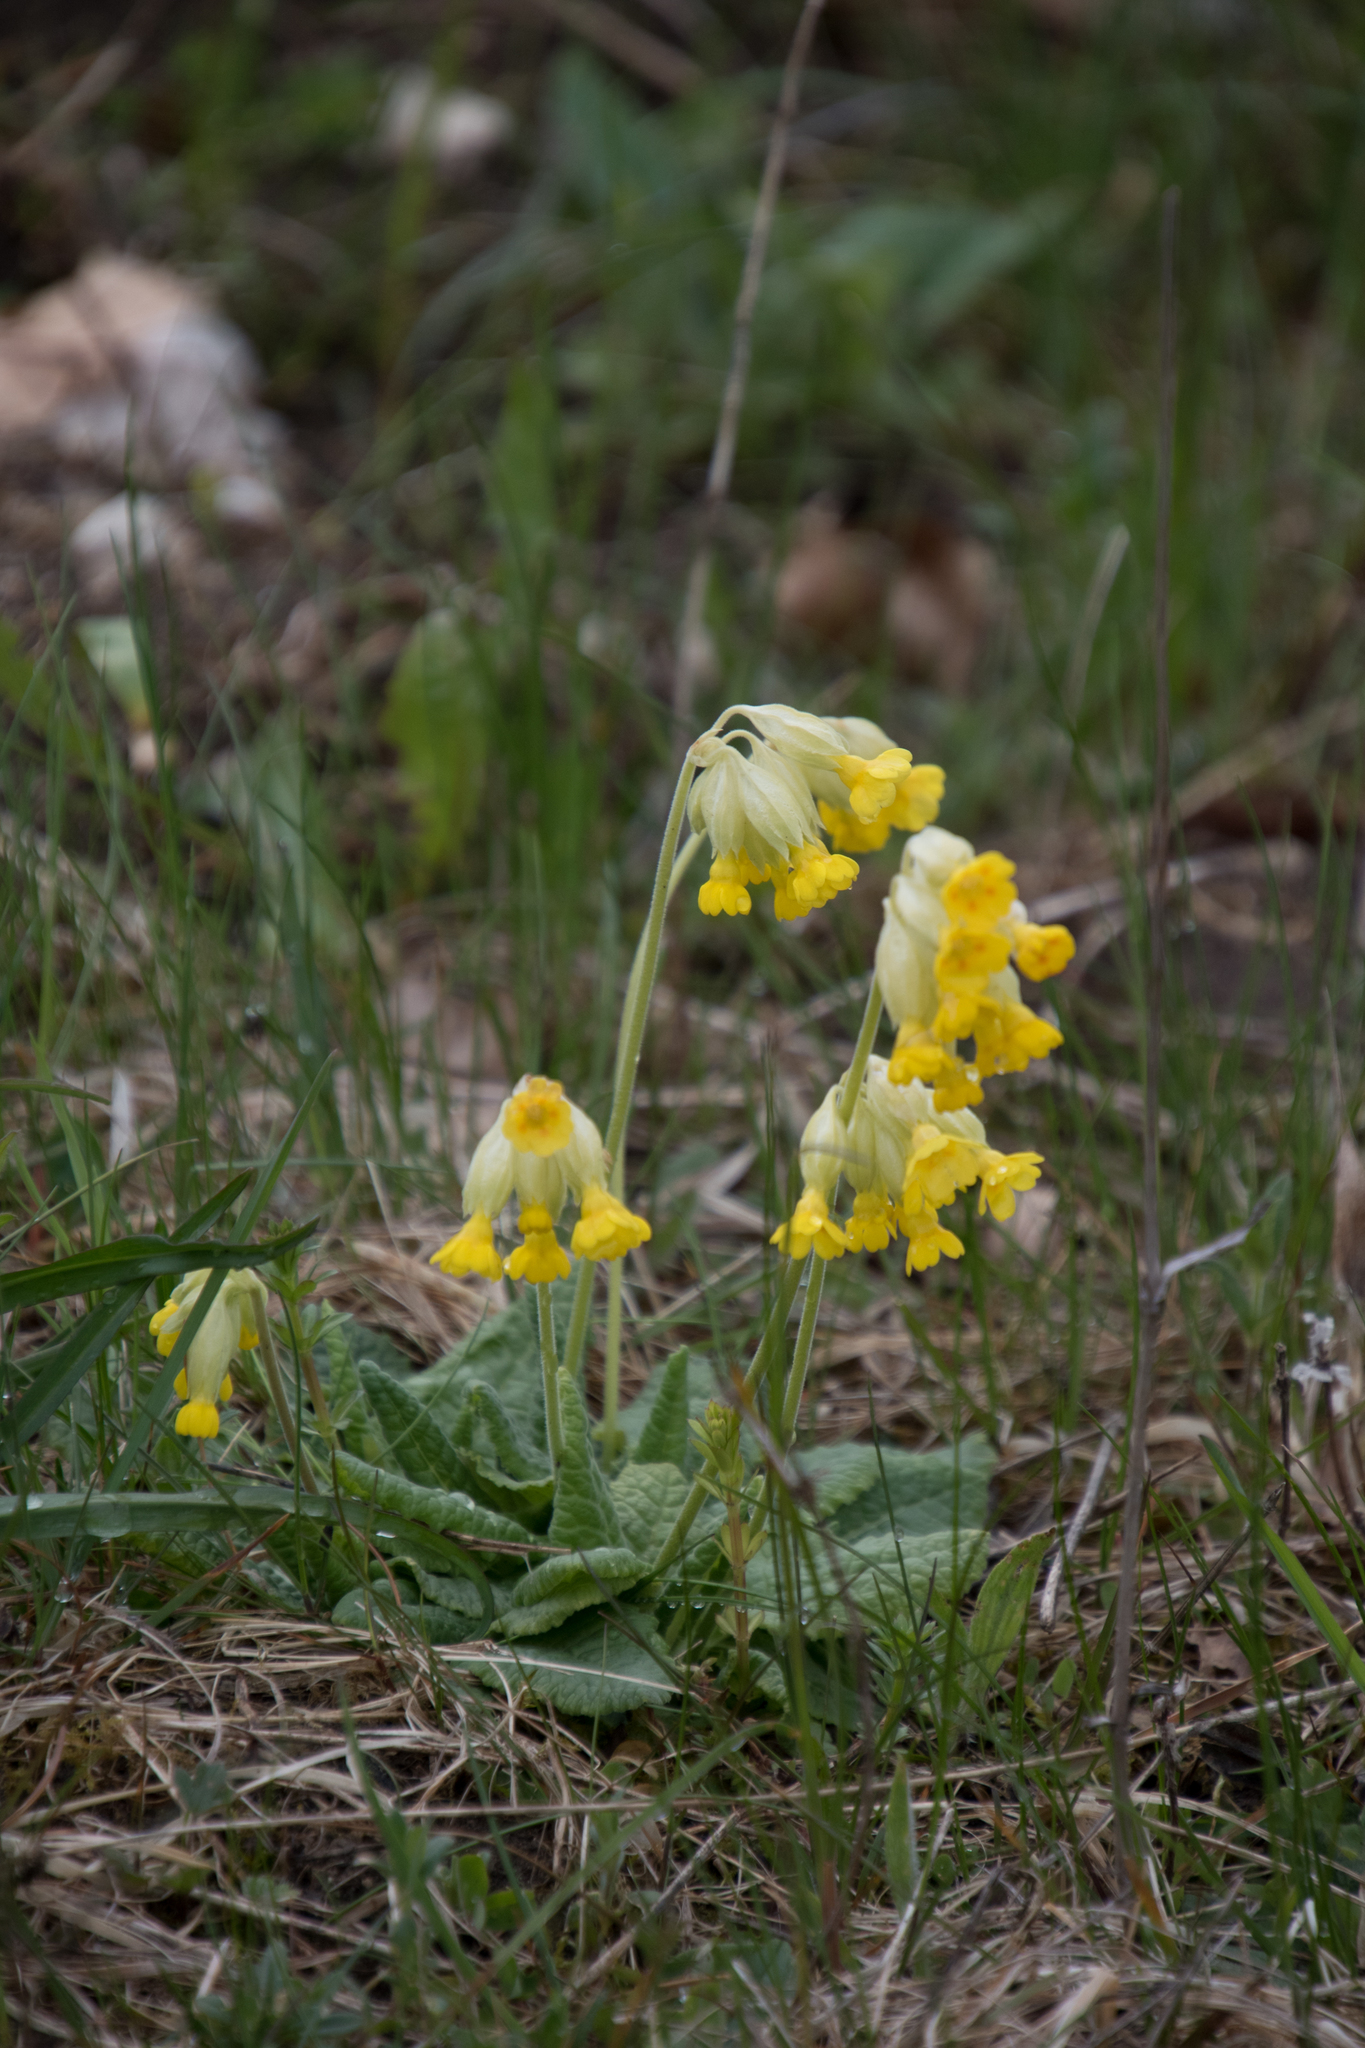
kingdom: Plantae
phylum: Tracheophyta
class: Magnoliopsida
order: Ericales
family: Primulaceae
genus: Primula
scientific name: Primula veris
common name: Cowslip
